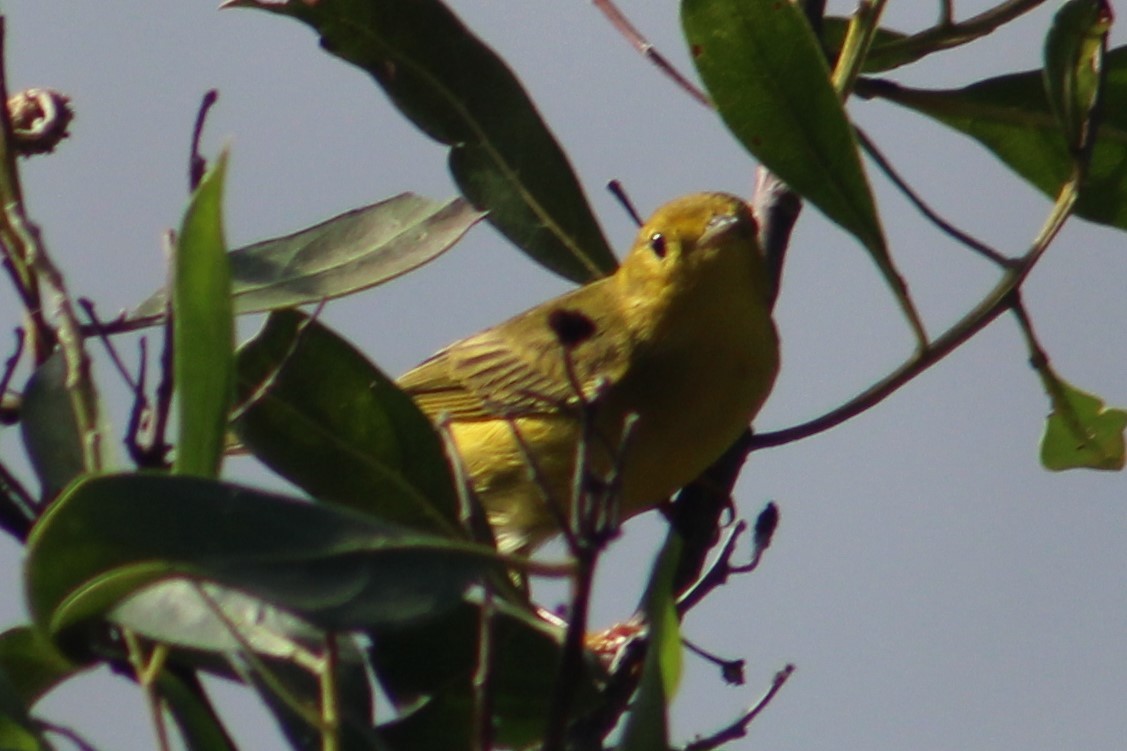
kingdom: Animalia
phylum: Chordata
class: Aves
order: Passeriformes
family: Parulidae
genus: Setophaga
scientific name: Setophaga petechia
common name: Yellow warbler
